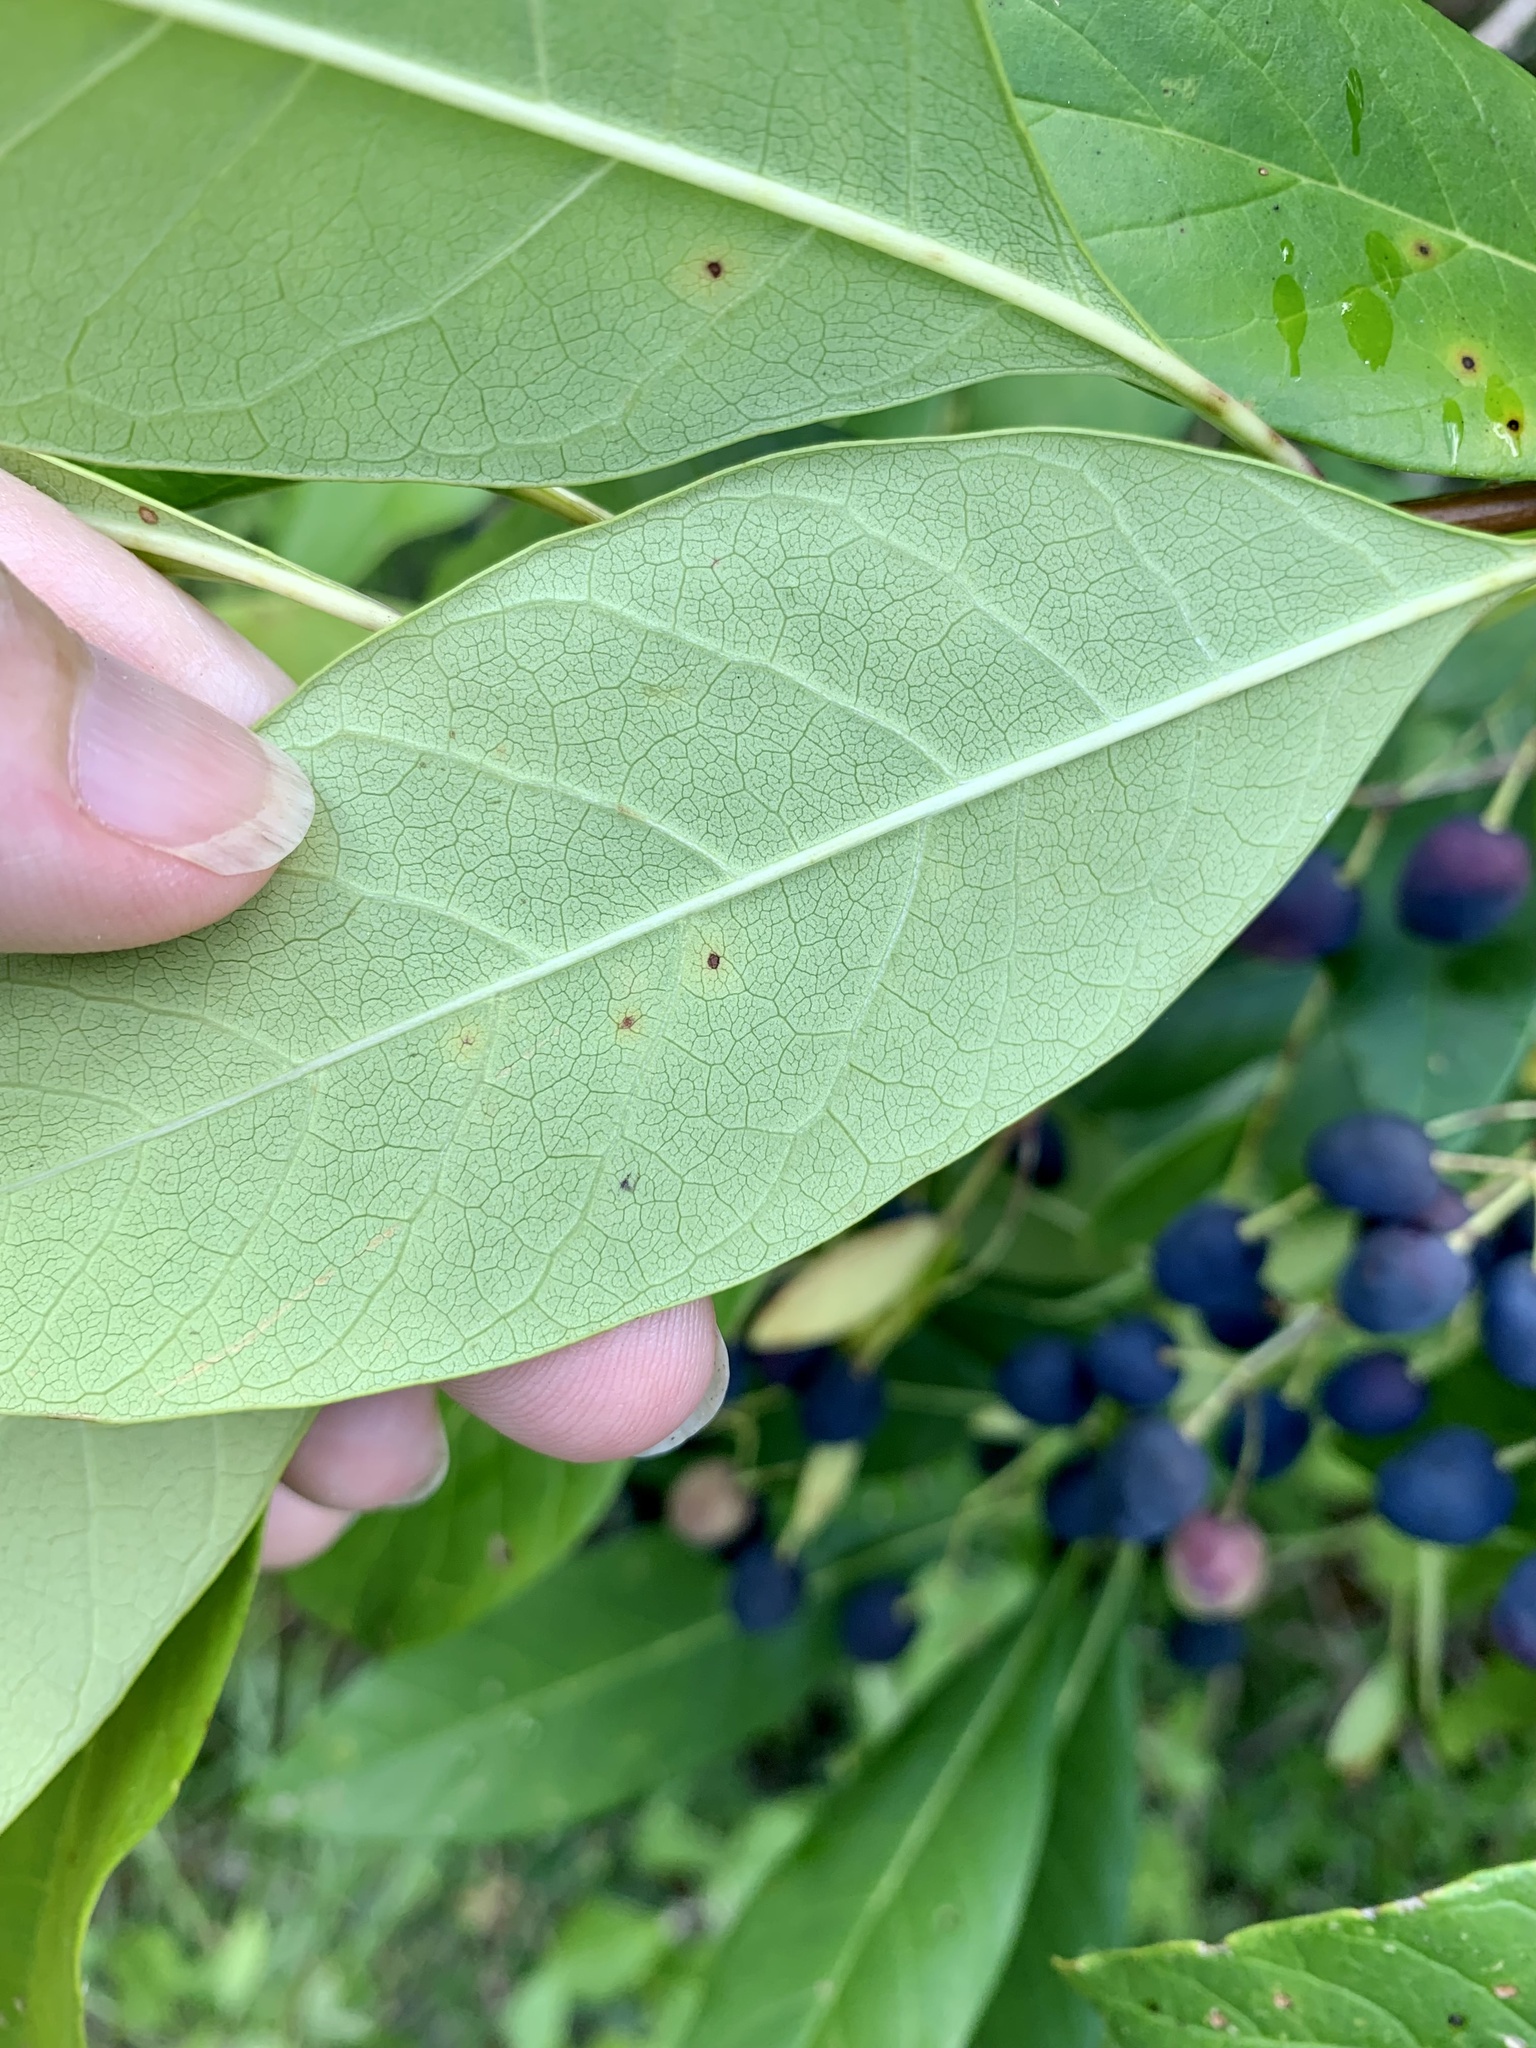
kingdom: Plantae
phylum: Tracheophyta
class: Magnoliopsida
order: Lamiales
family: Oleaceae
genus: Chionanthus
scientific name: Chionanthus virginicus
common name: American fringetree
